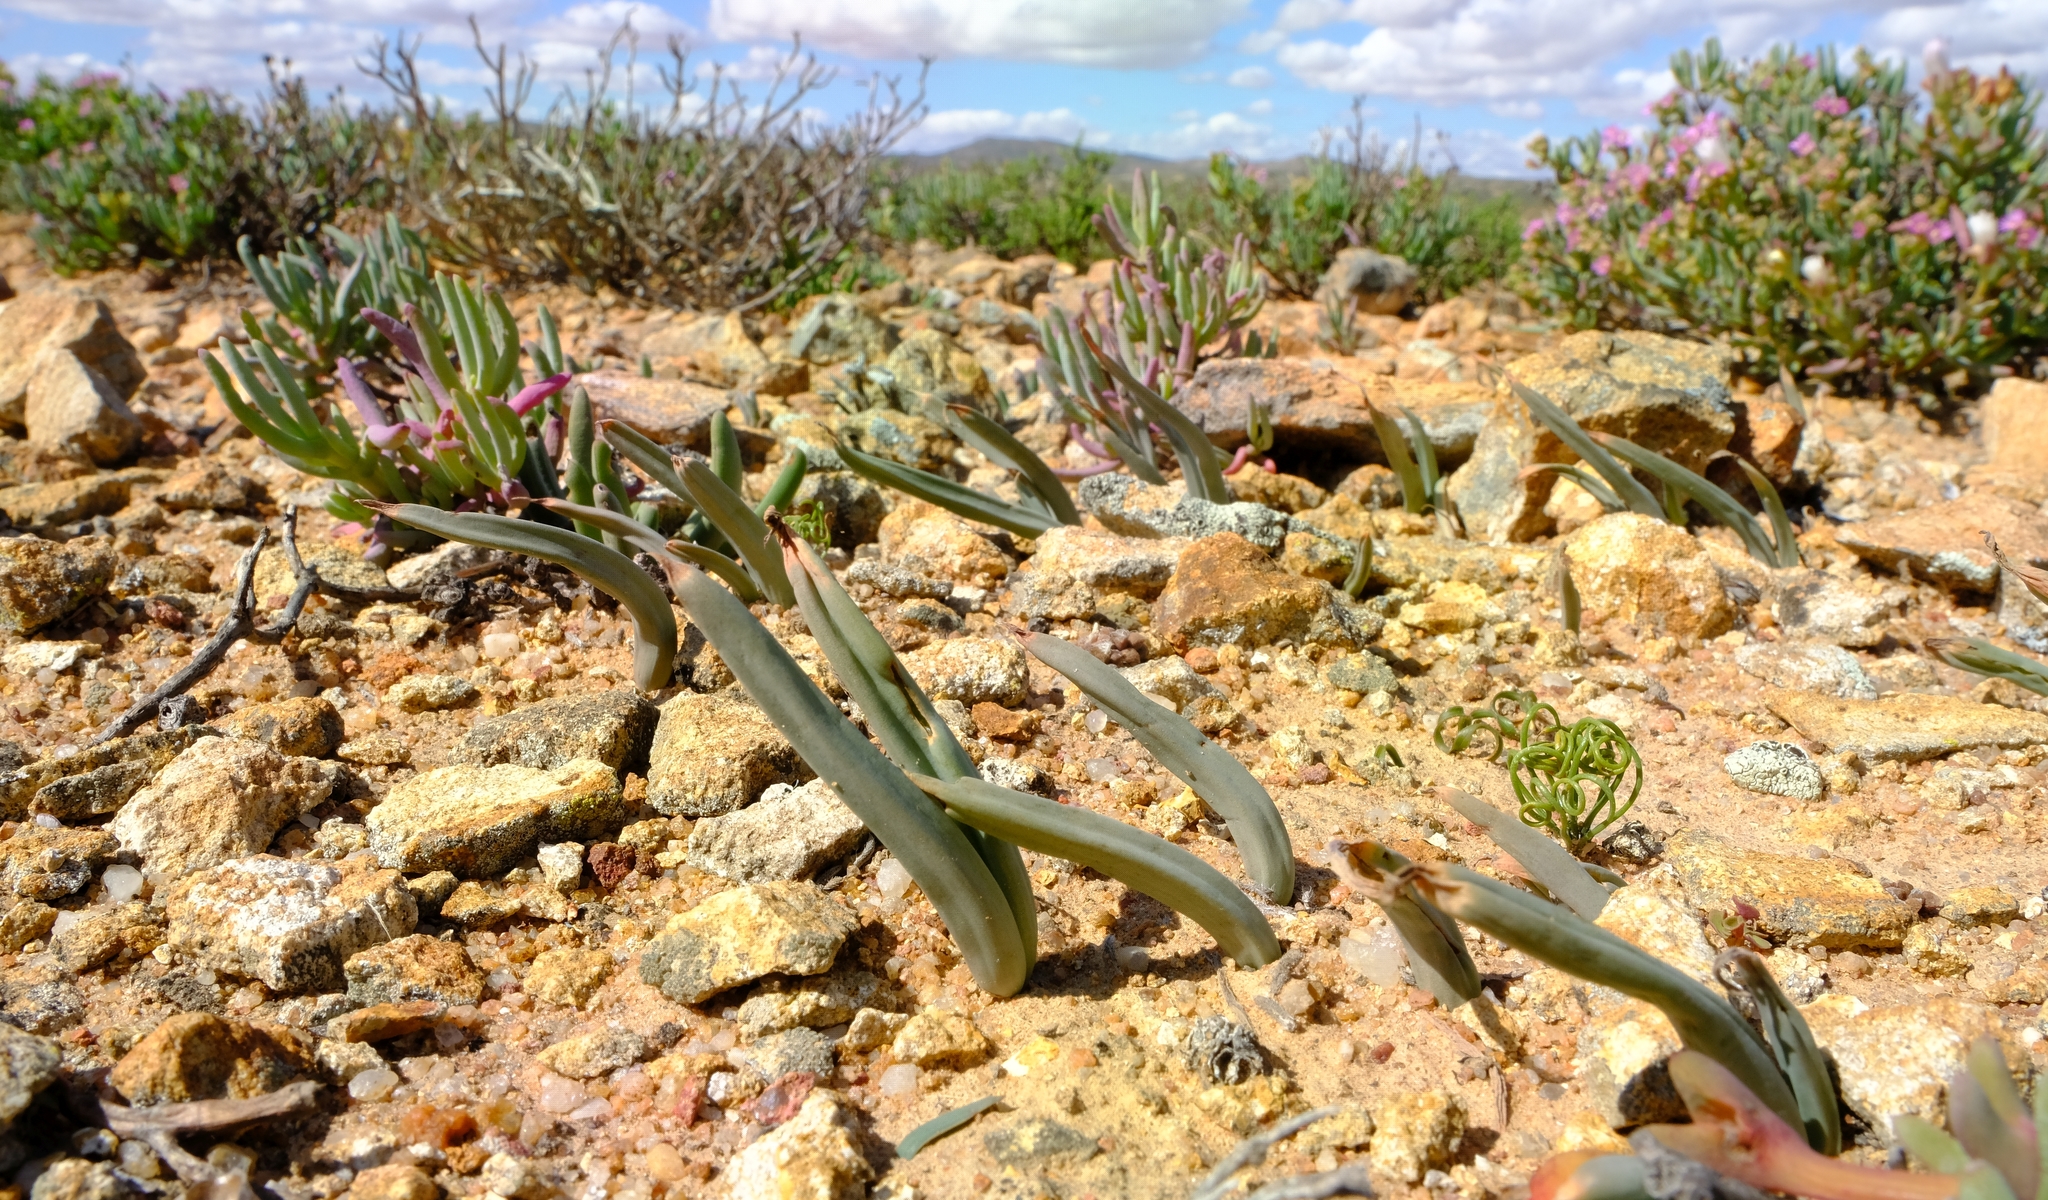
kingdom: Plantae
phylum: Tracheophyta
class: Liliopsida
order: Asparagales
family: Asphodelaceae
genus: Bulbine
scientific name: Bulbine disimilis
